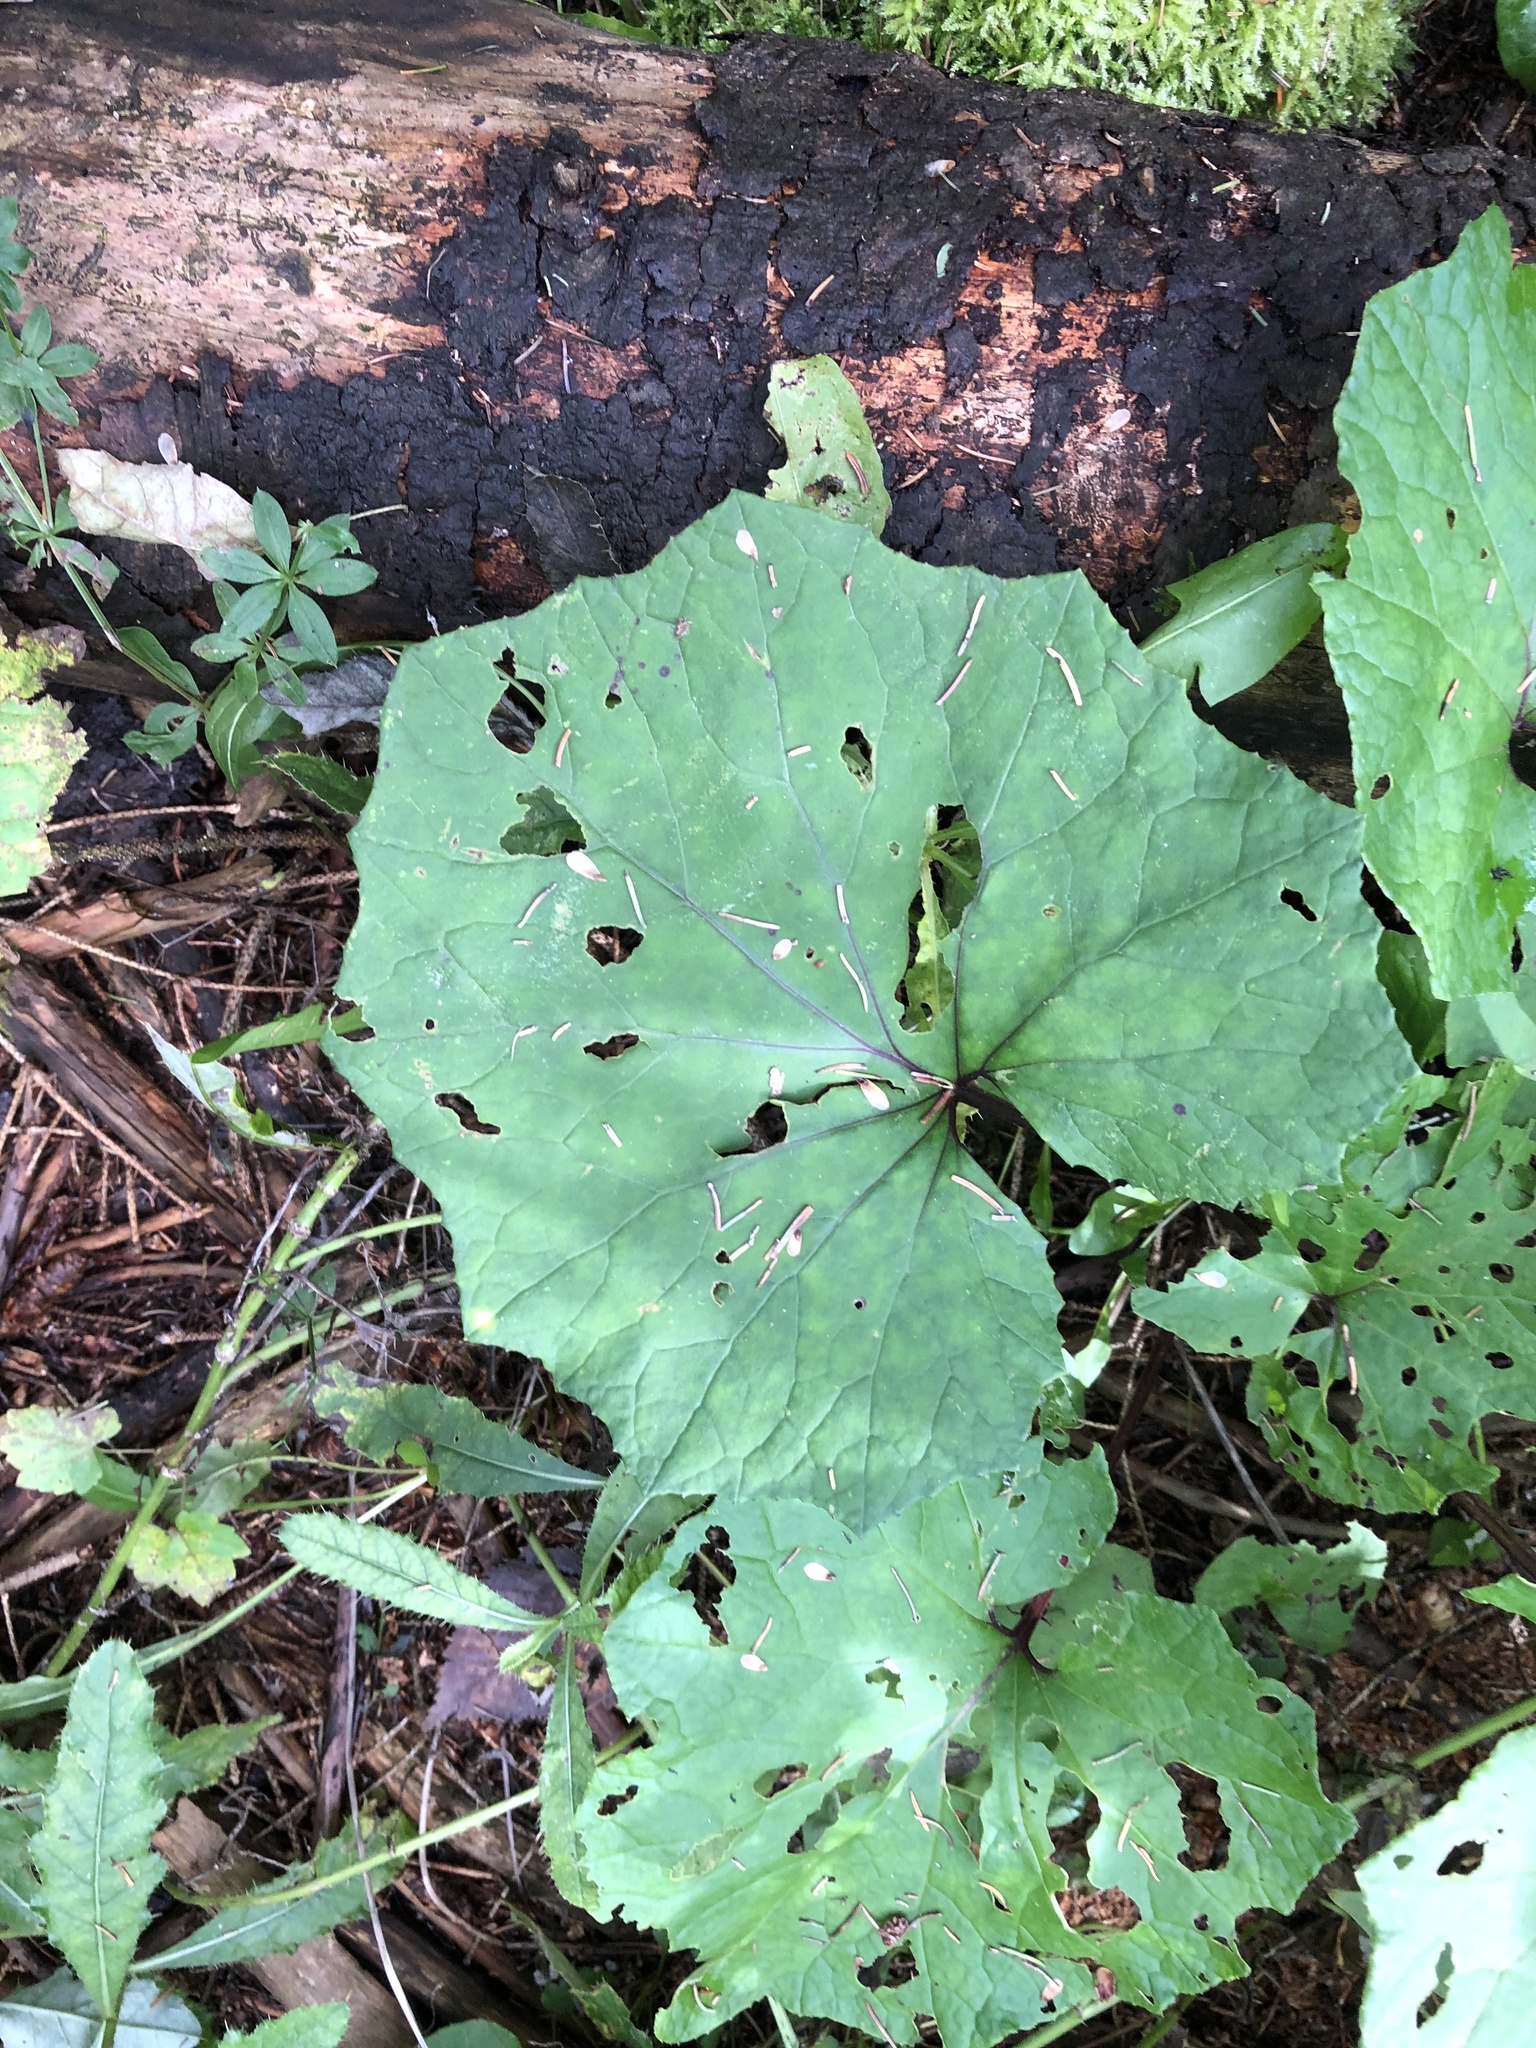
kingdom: Plantae
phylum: Tracheophyta
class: Magnoliopsida
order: Asterales
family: Asteraceae
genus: Tussilago
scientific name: Tussilago farfara
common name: Coltsfoot
